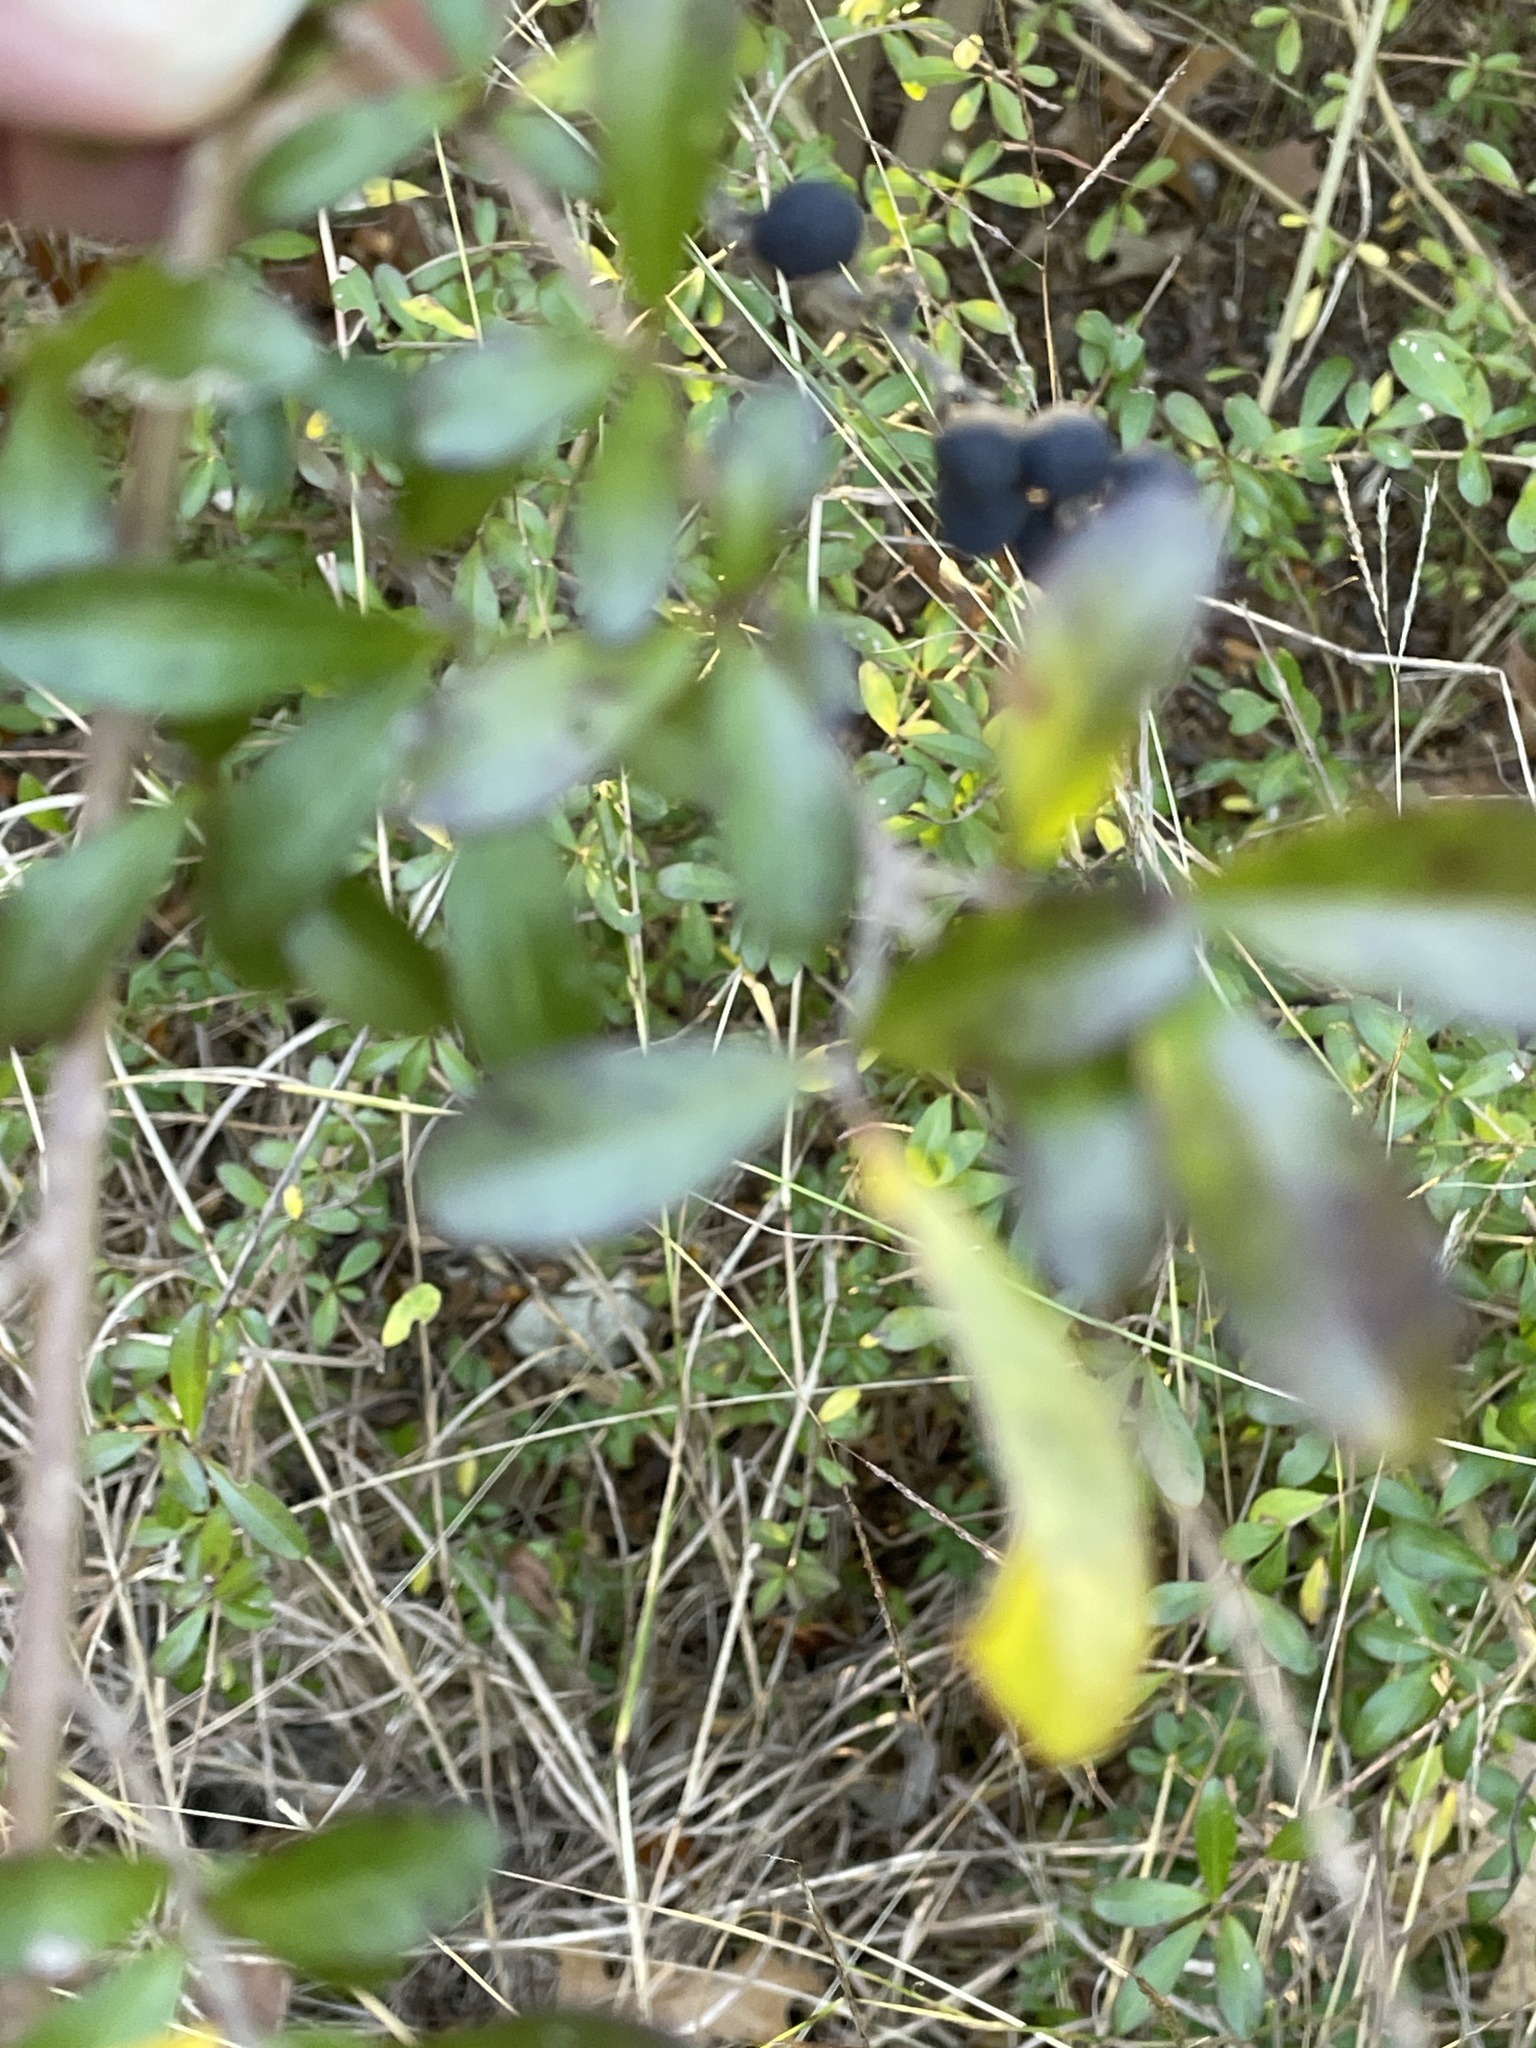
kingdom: Plantae
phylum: Tracheophyta
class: Magnoliopsida
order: Lamiales
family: Oleaceae
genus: Ligustrum
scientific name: Ligustrum quihoui
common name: Waxyleaf privet
